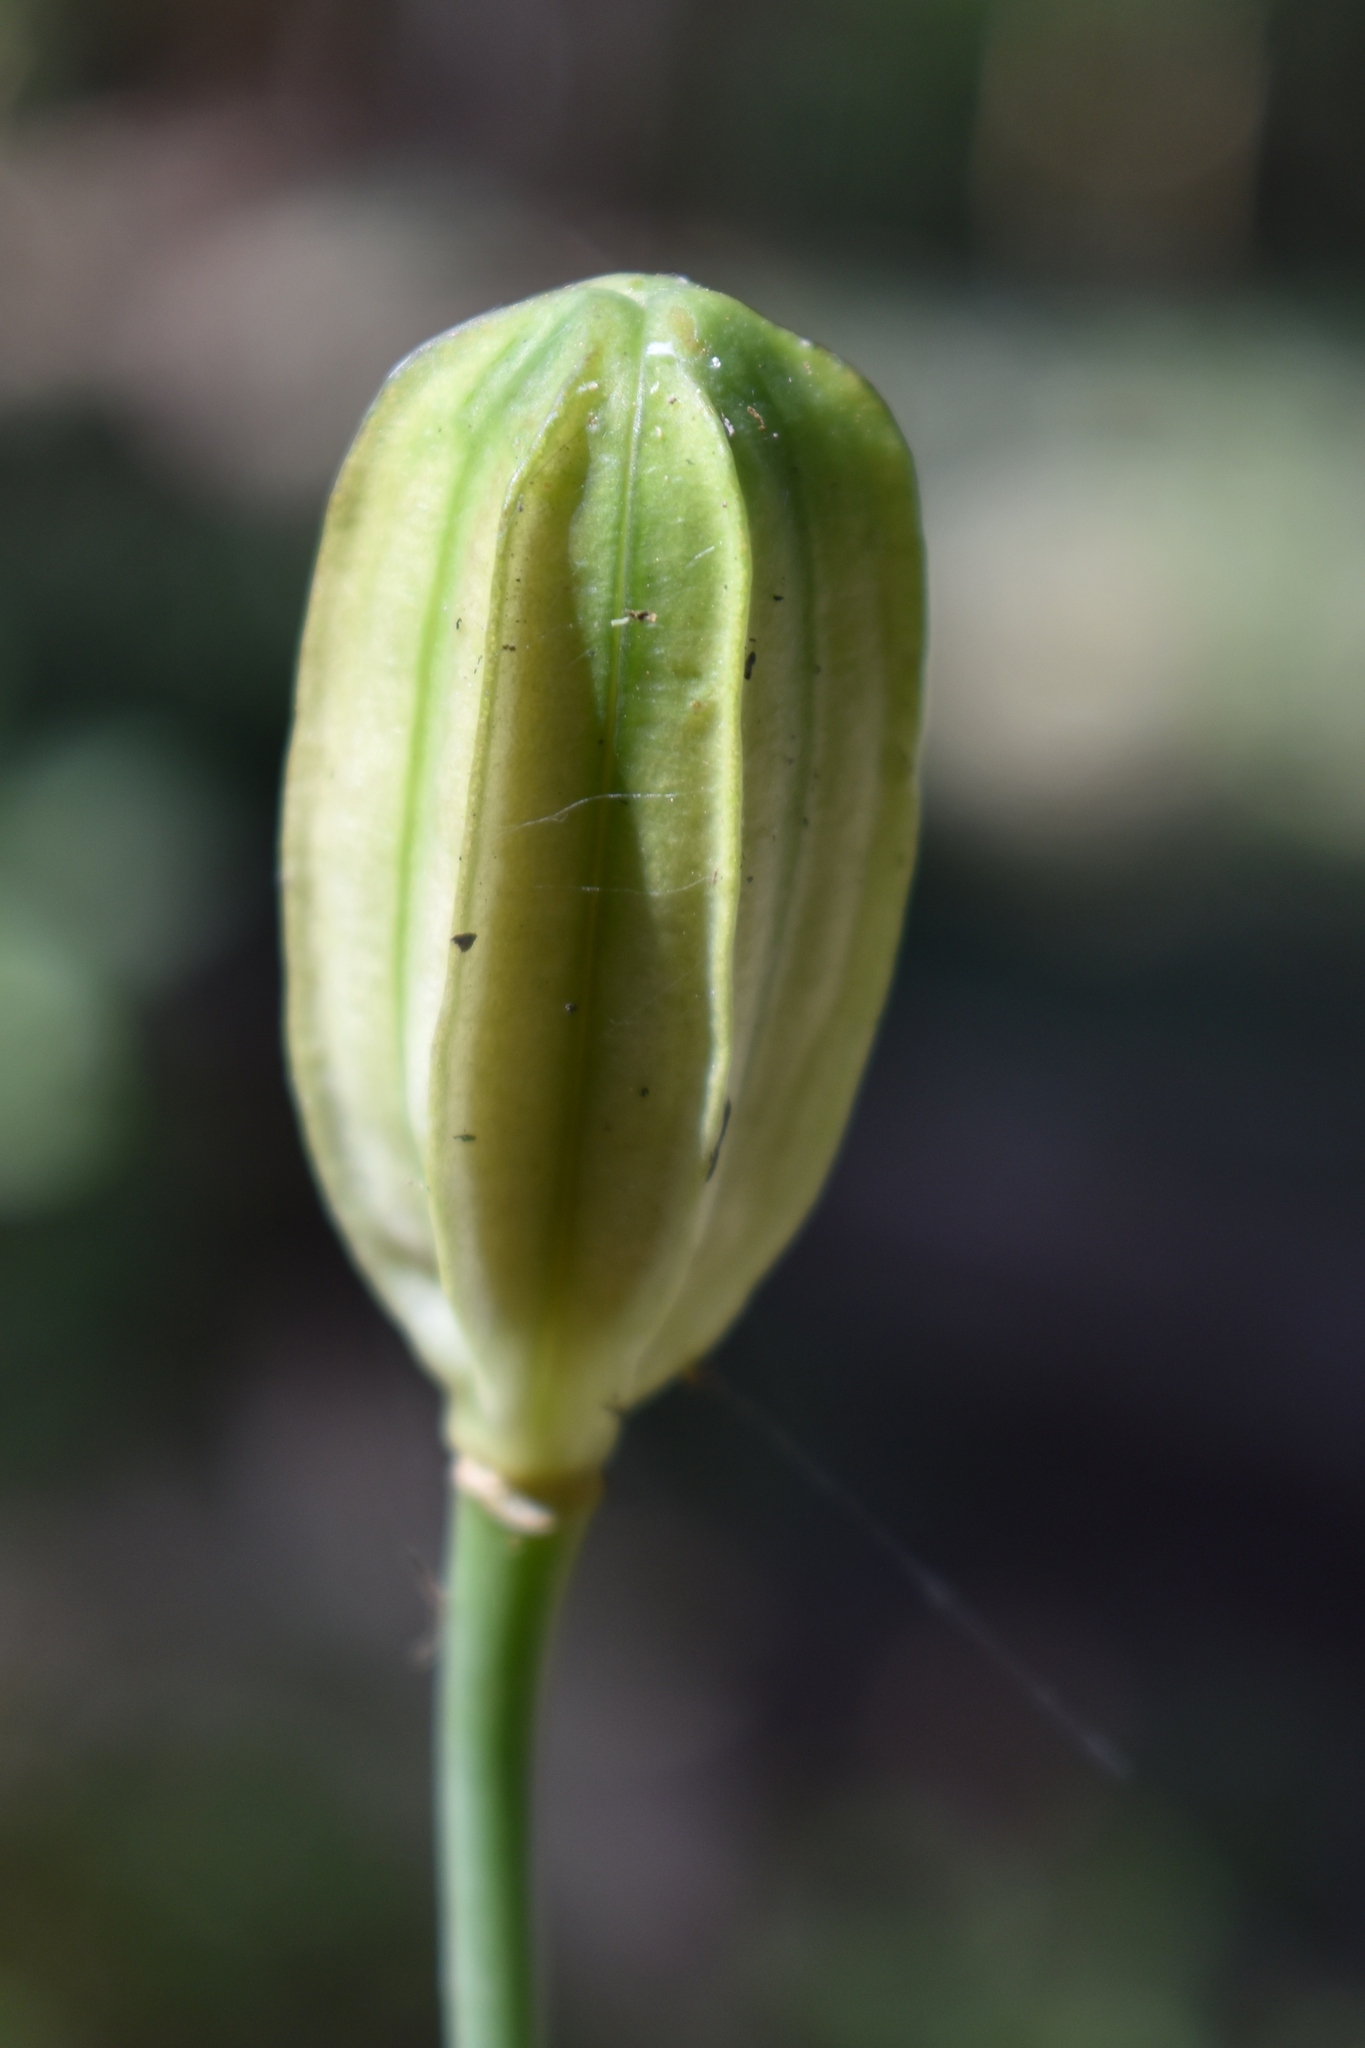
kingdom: Plantae
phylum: Tracheophyta
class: Liliopsida
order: Liliales
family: Liliaceae
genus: Lilium
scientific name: Lilium washingtonianum
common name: Washington lily
